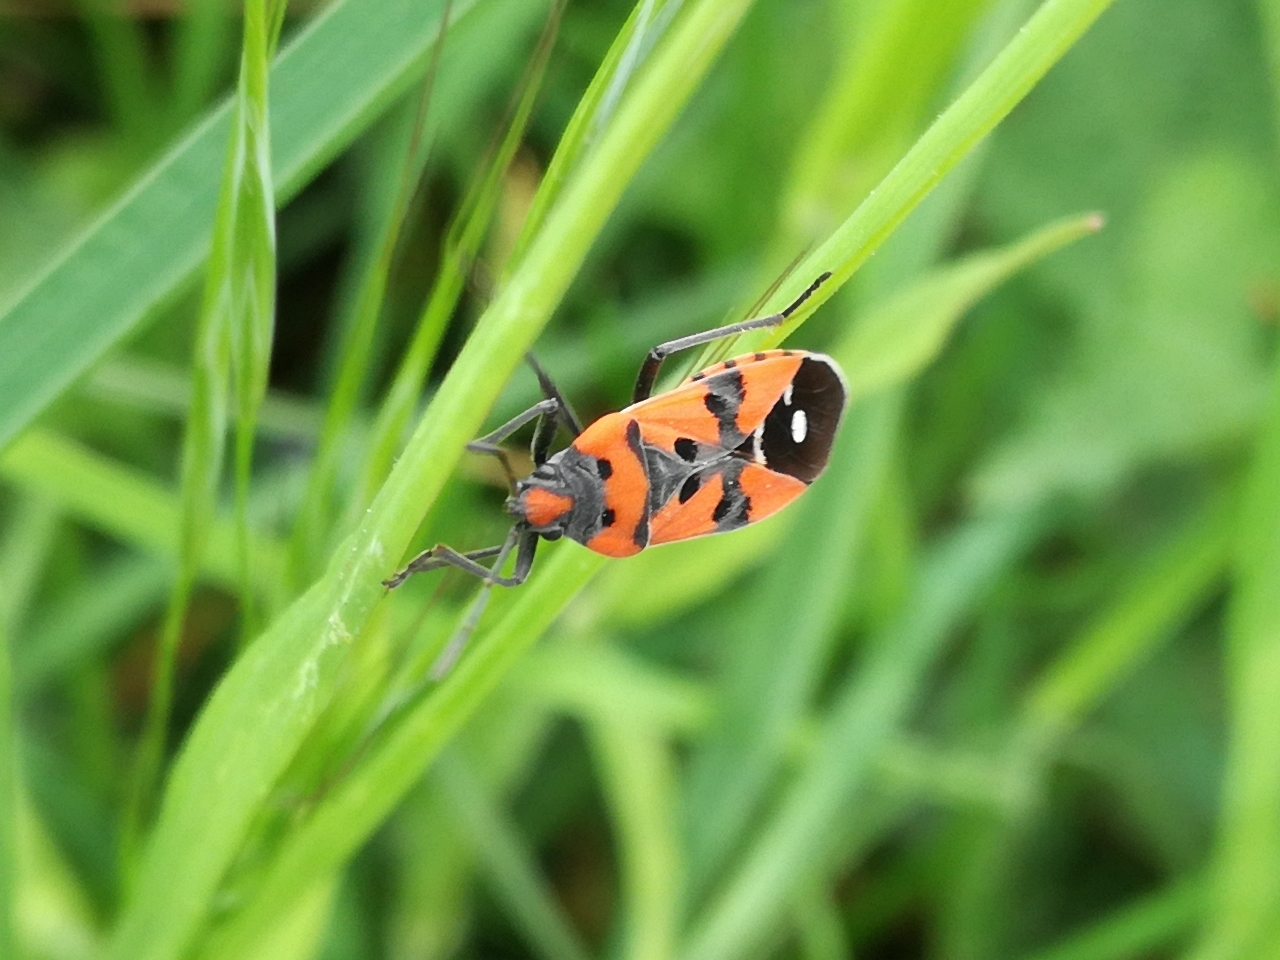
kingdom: Animalia
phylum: Arthropoda
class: Insecta
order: Hemiptera
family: Lygaeidae
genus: Lygaeus
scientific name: Lygaeus equestris
